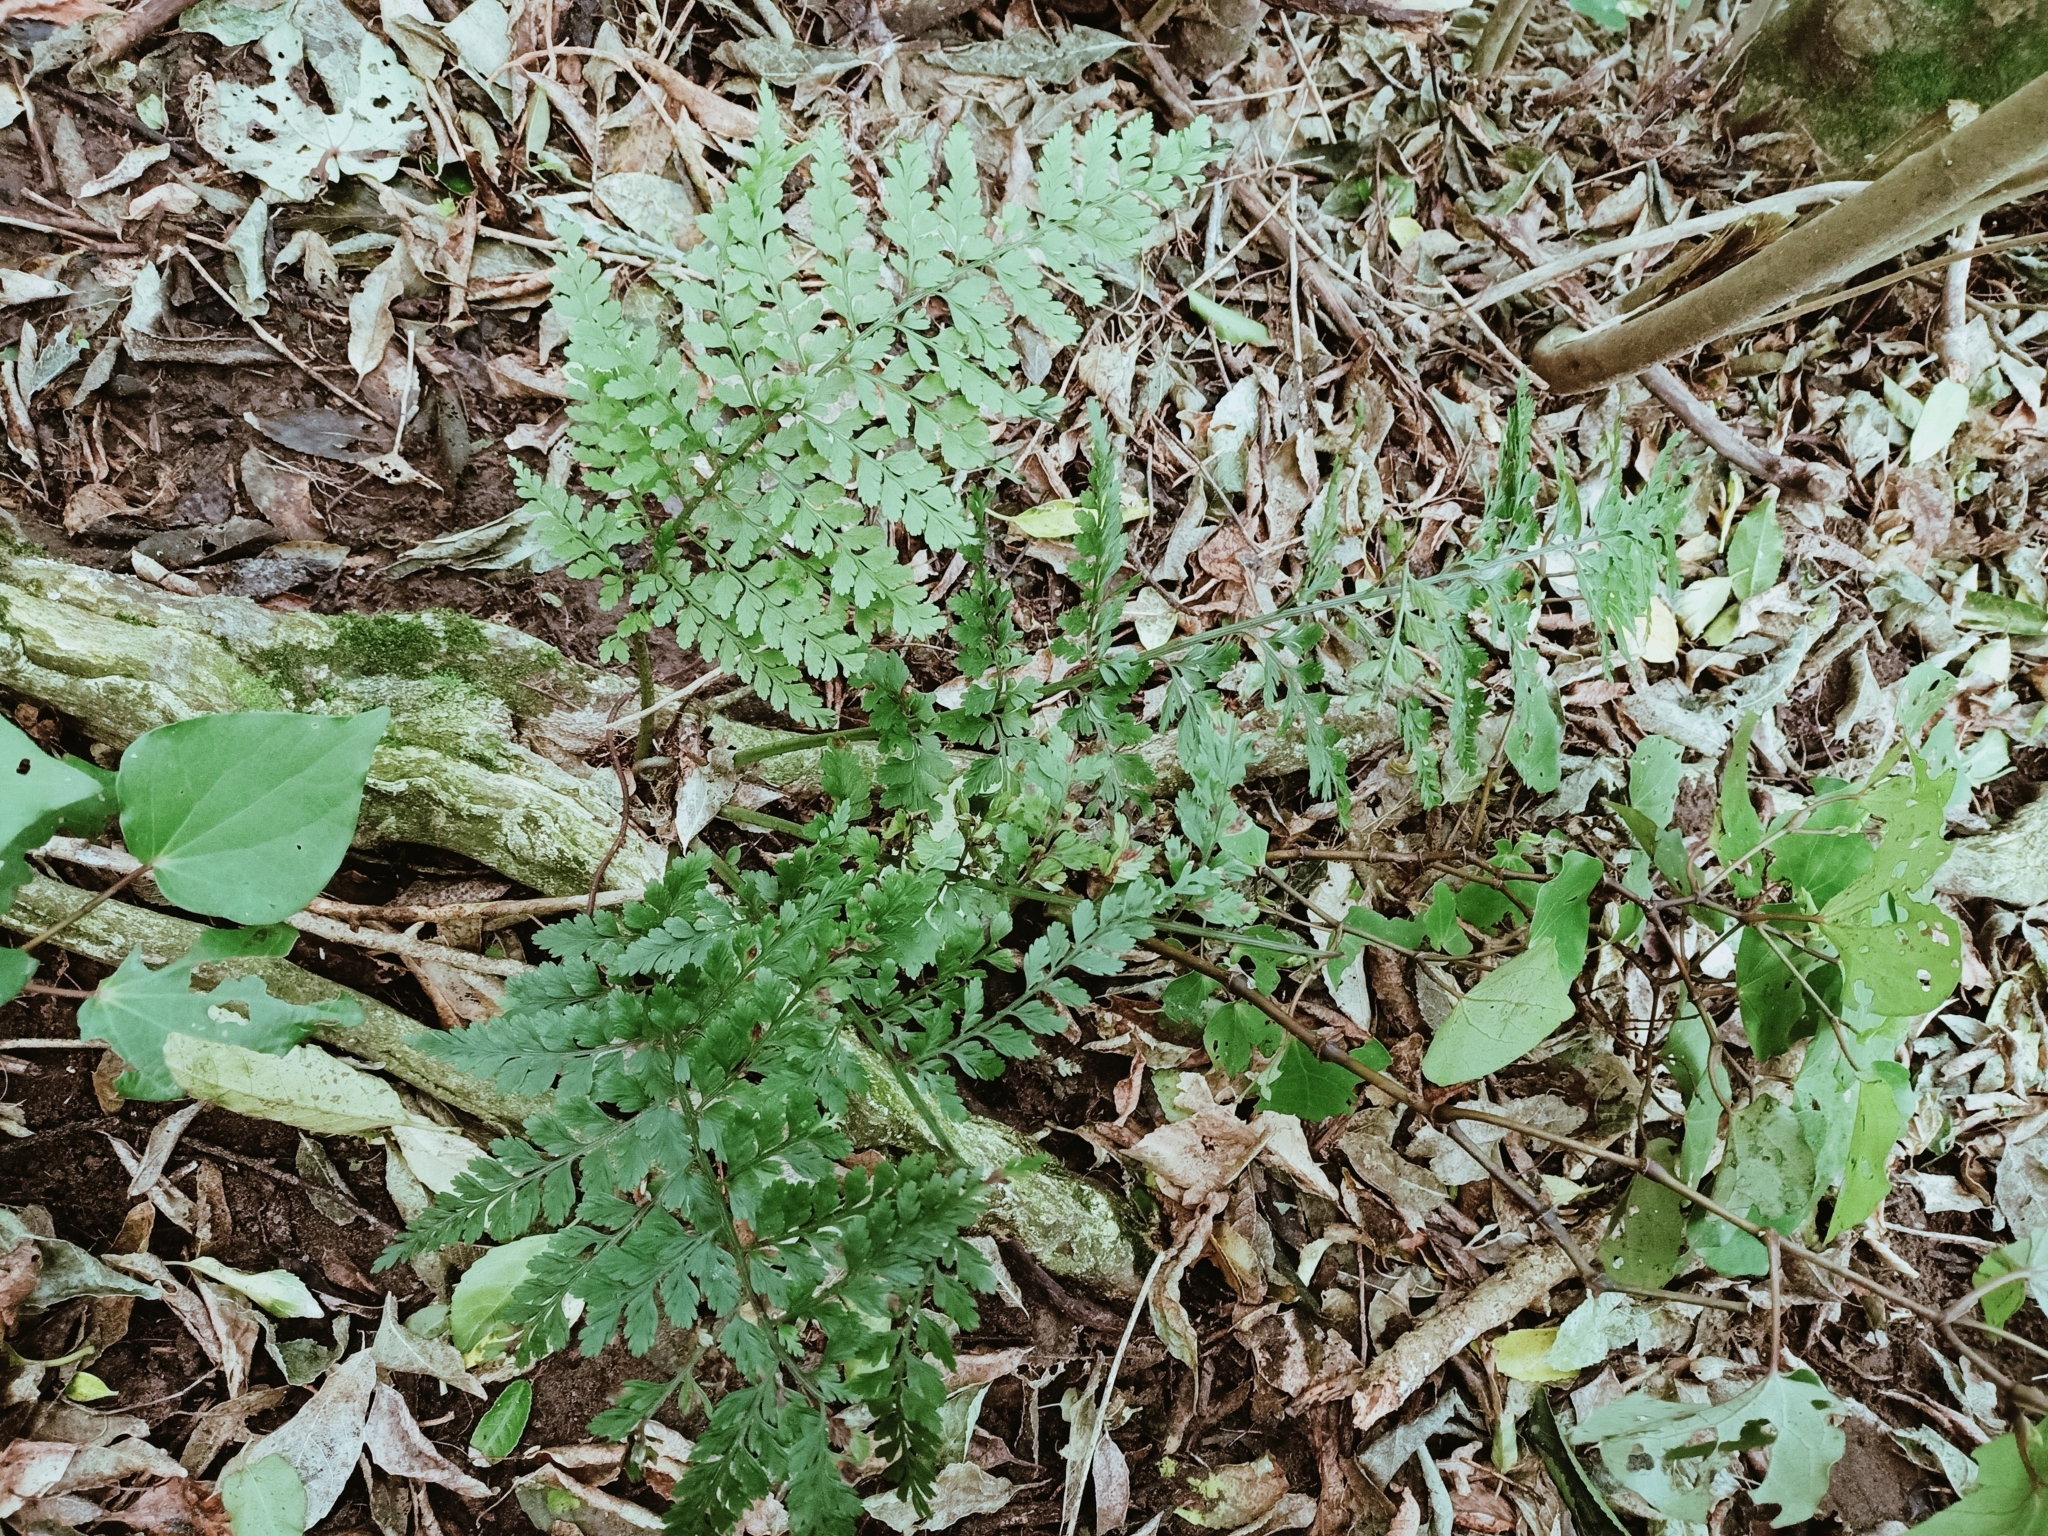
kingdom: Plantae
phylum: Tracheophyta
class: Polypodiopsida
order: Polypodiales
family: Aspleniaceae
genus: Asplenium
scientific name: Asplenium hookerianum
